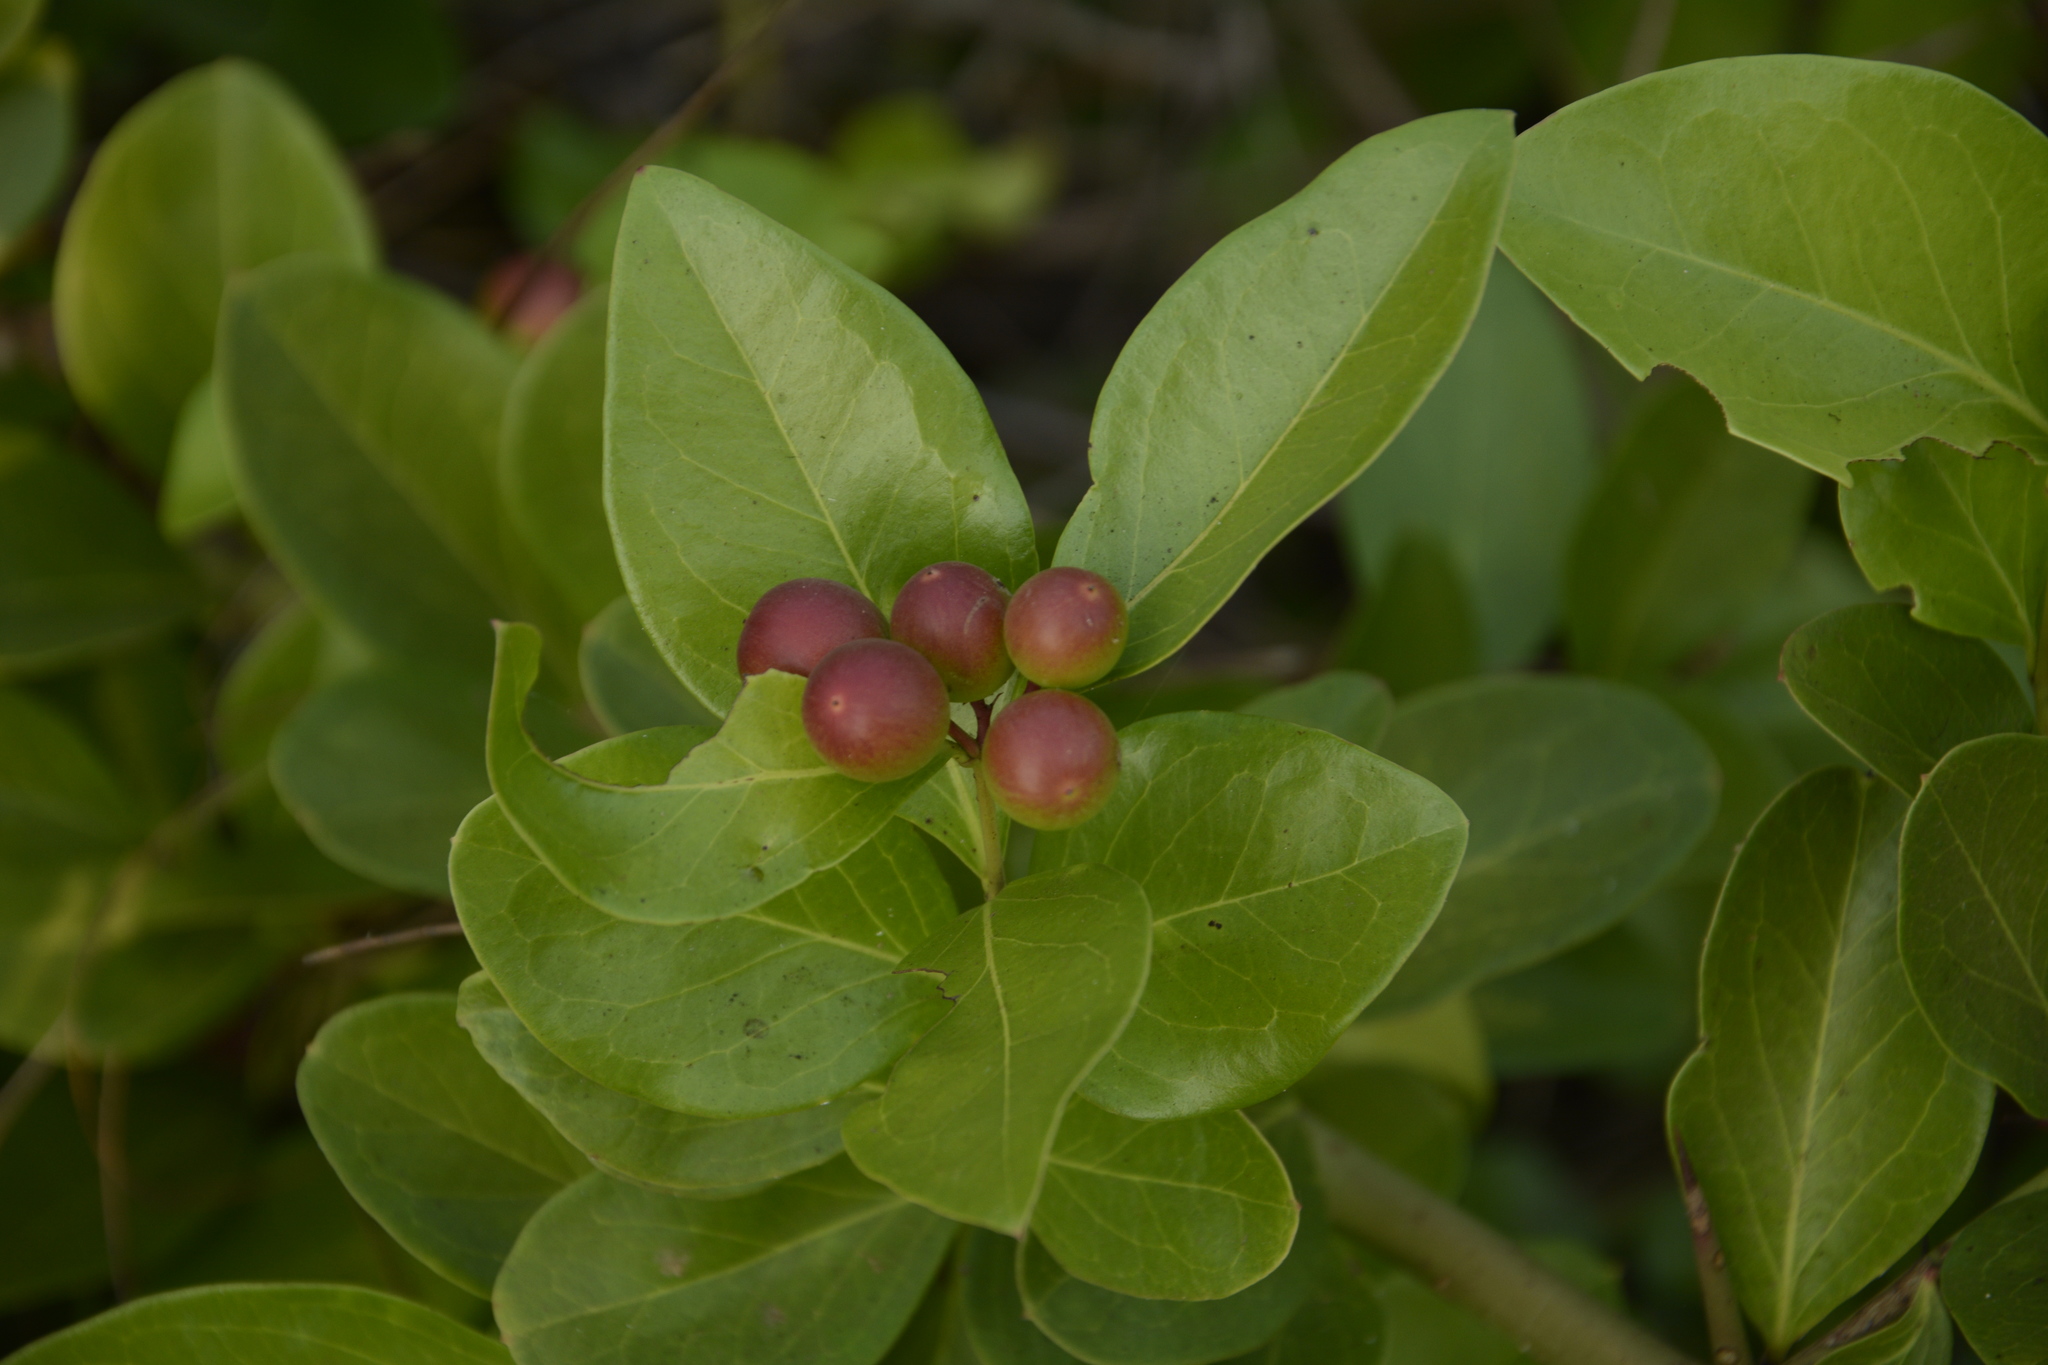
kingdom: Plantae
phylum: Tracheophyta
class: Magnoliopsida
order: Gentianales
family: Apocynaceae
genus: Carissa
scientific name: Carissa carandas
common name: Karanda
